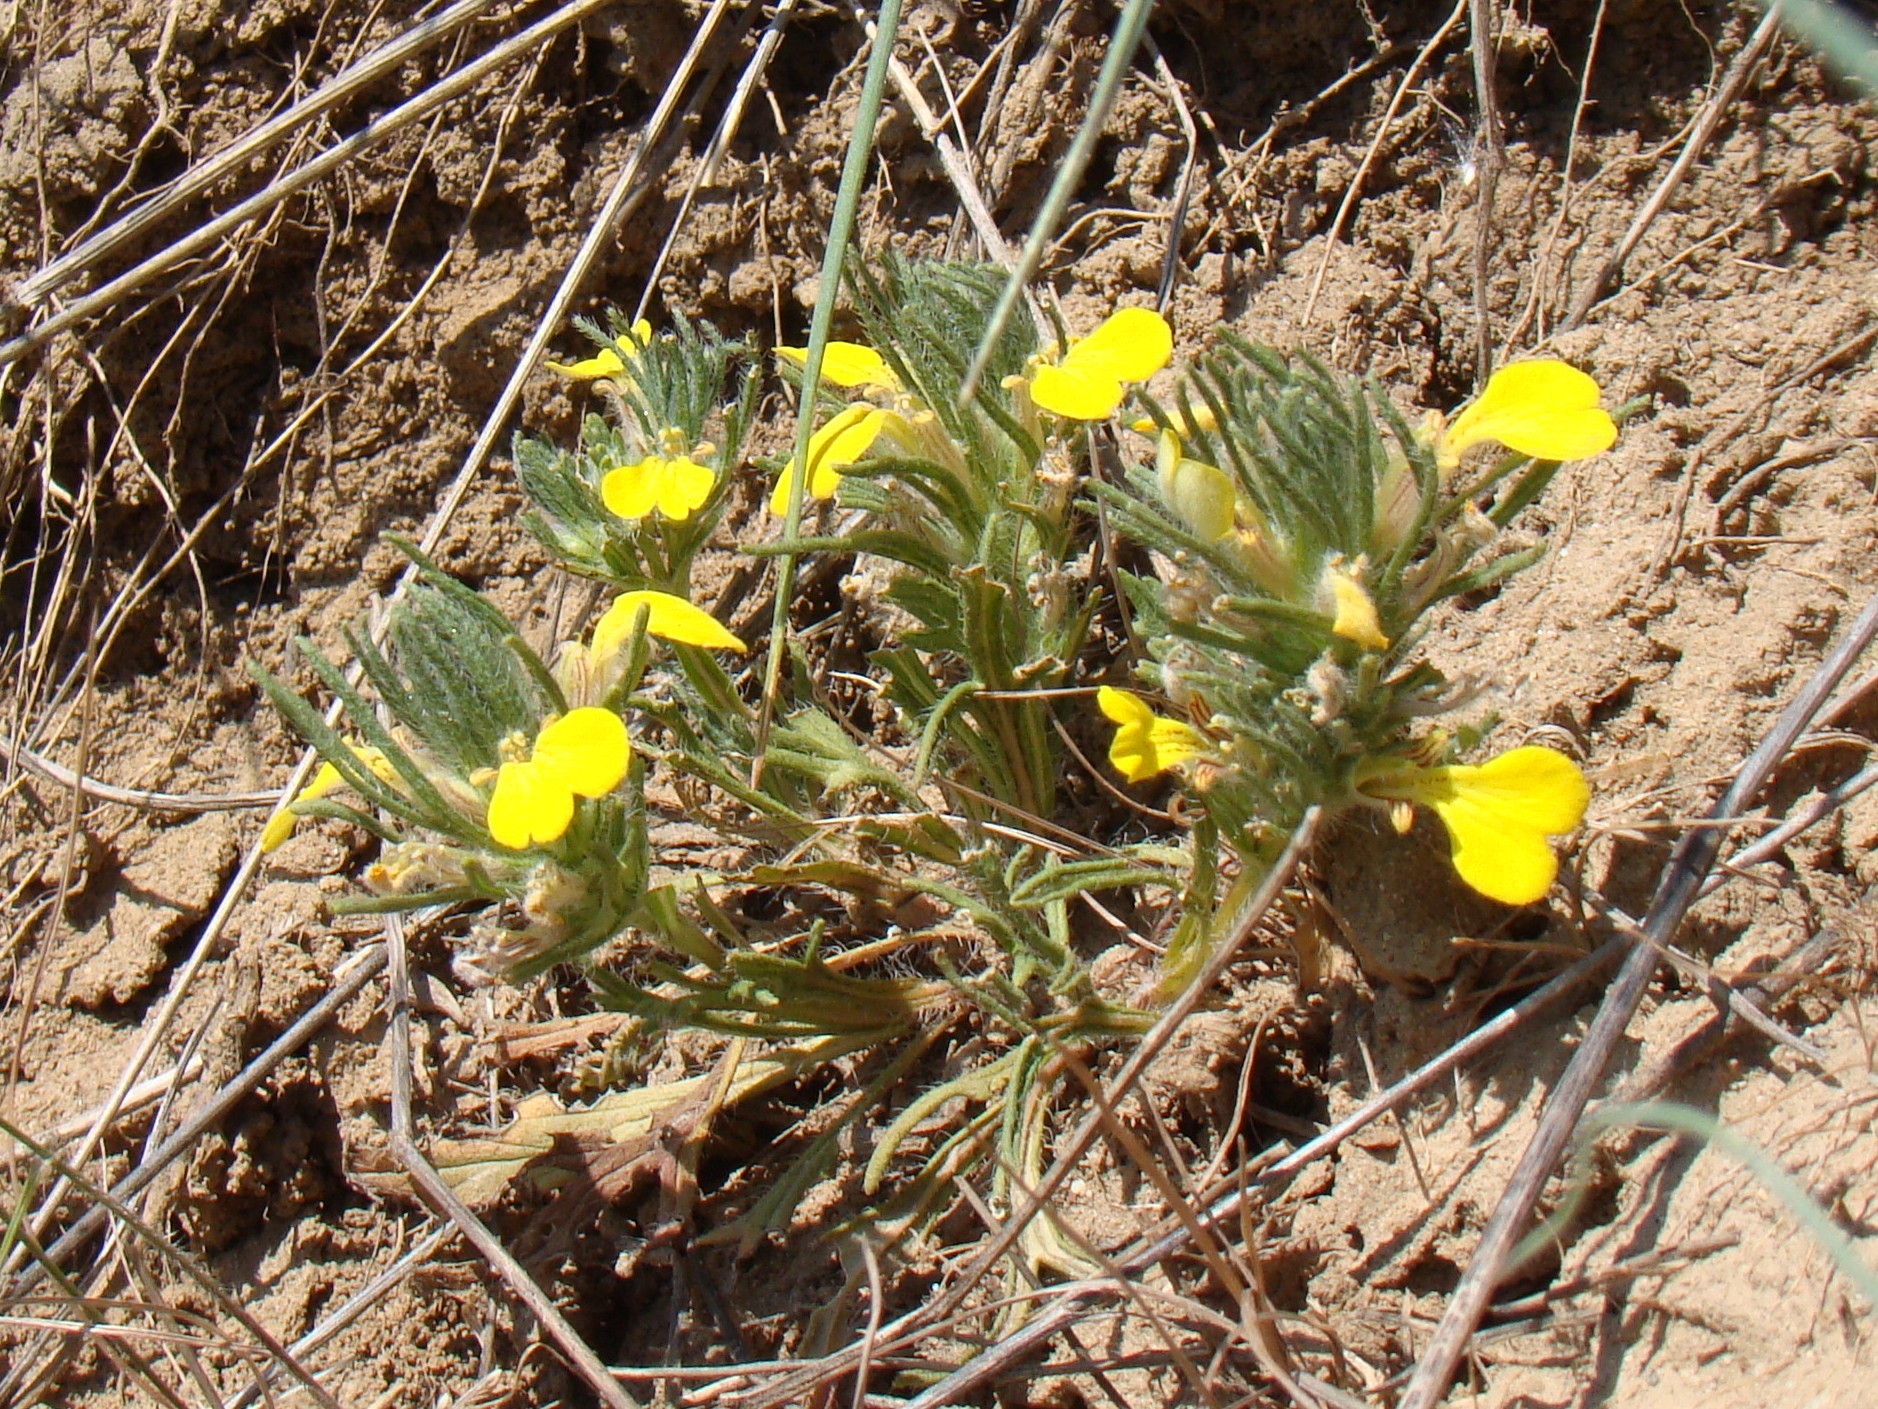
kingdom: Plantae
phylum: Tracheophyta
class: Magnoliopsida
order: Lamiales
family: Lamiaceae
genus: Ajuga
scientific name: Ajuga chamaepitys
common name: Ground-pine
